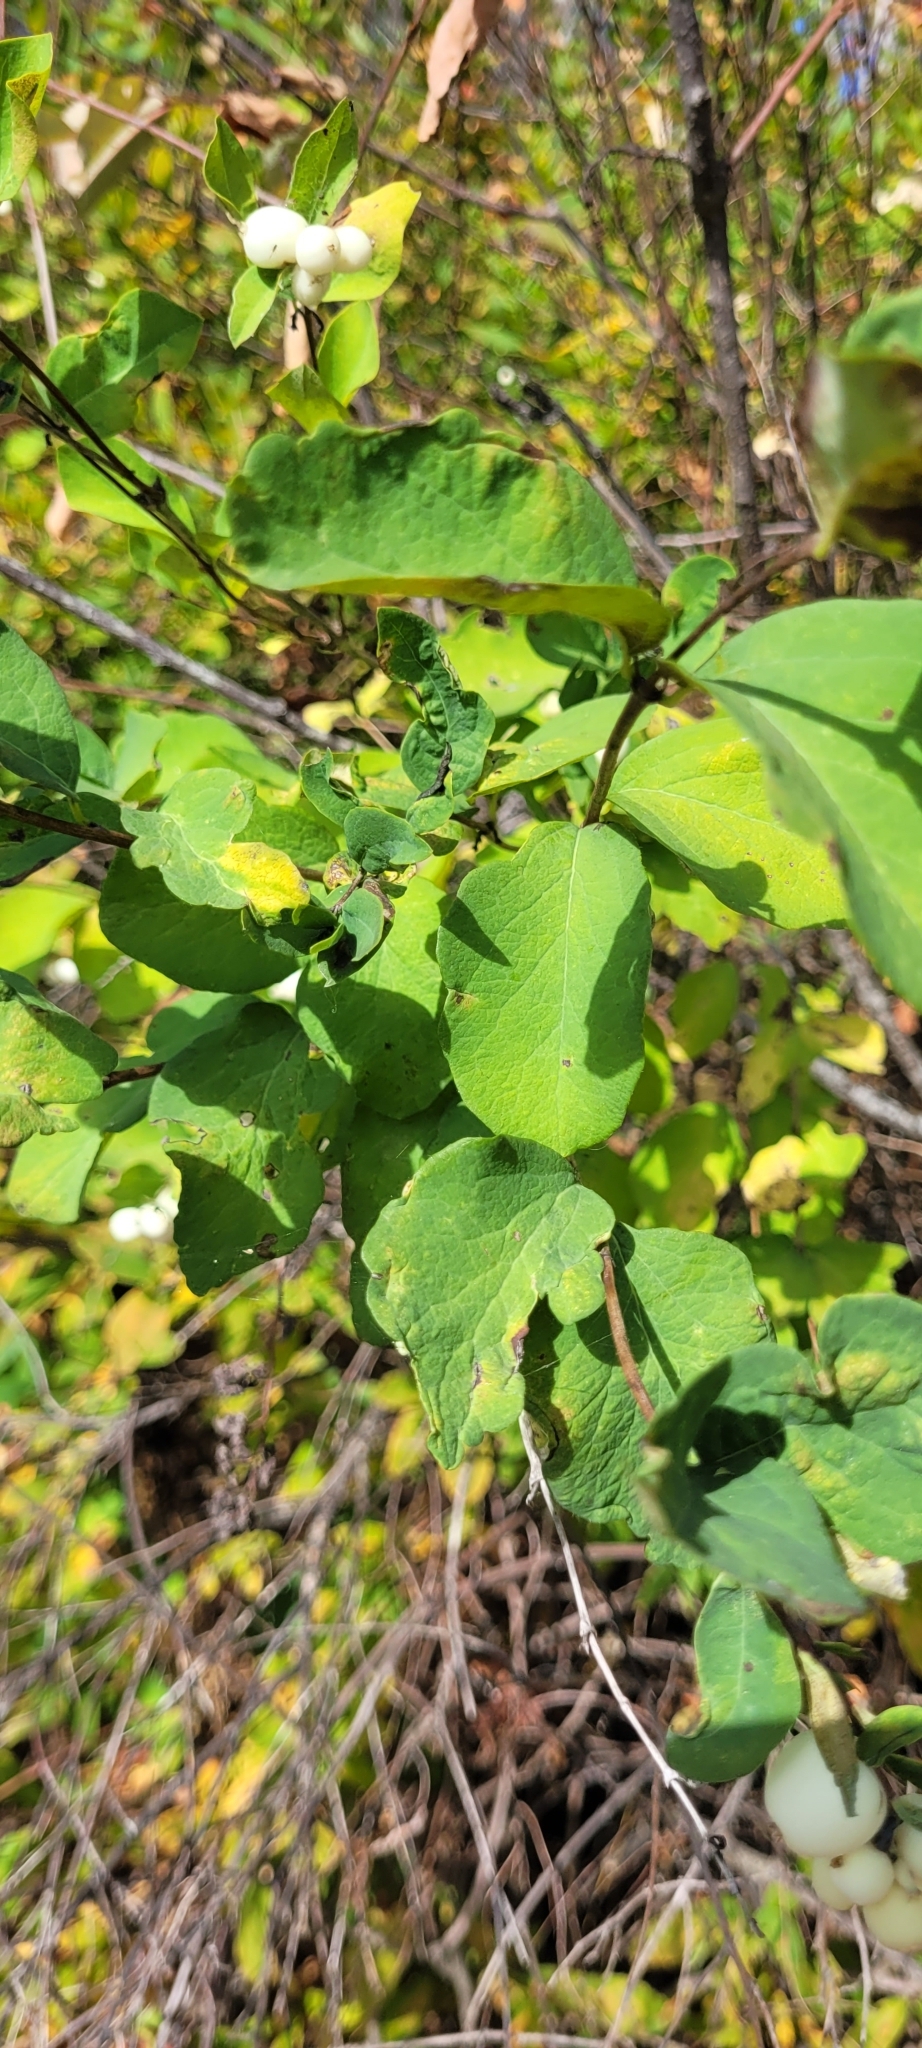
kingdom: Plantae
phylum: Tracheophyta
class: Magnoliopsida
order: Dipsacales
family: Caprifoliaceae
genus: Symphoricarpos
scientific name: Symphoricarpos albus
